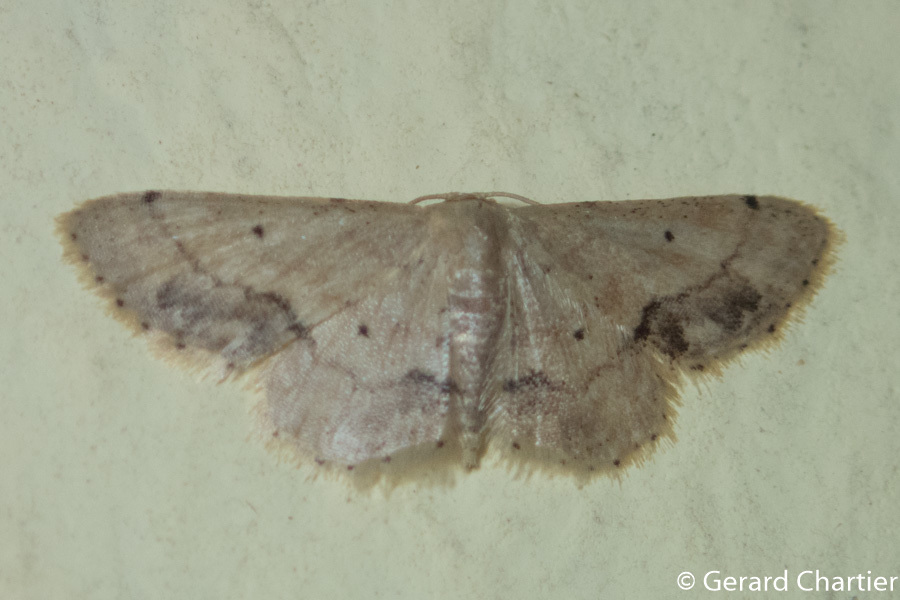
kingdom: Animalia
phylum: Arthropoda
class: Insecta
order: Lepidoptera
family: Geometridae
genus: Idaea
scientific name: Idaea chotaria
